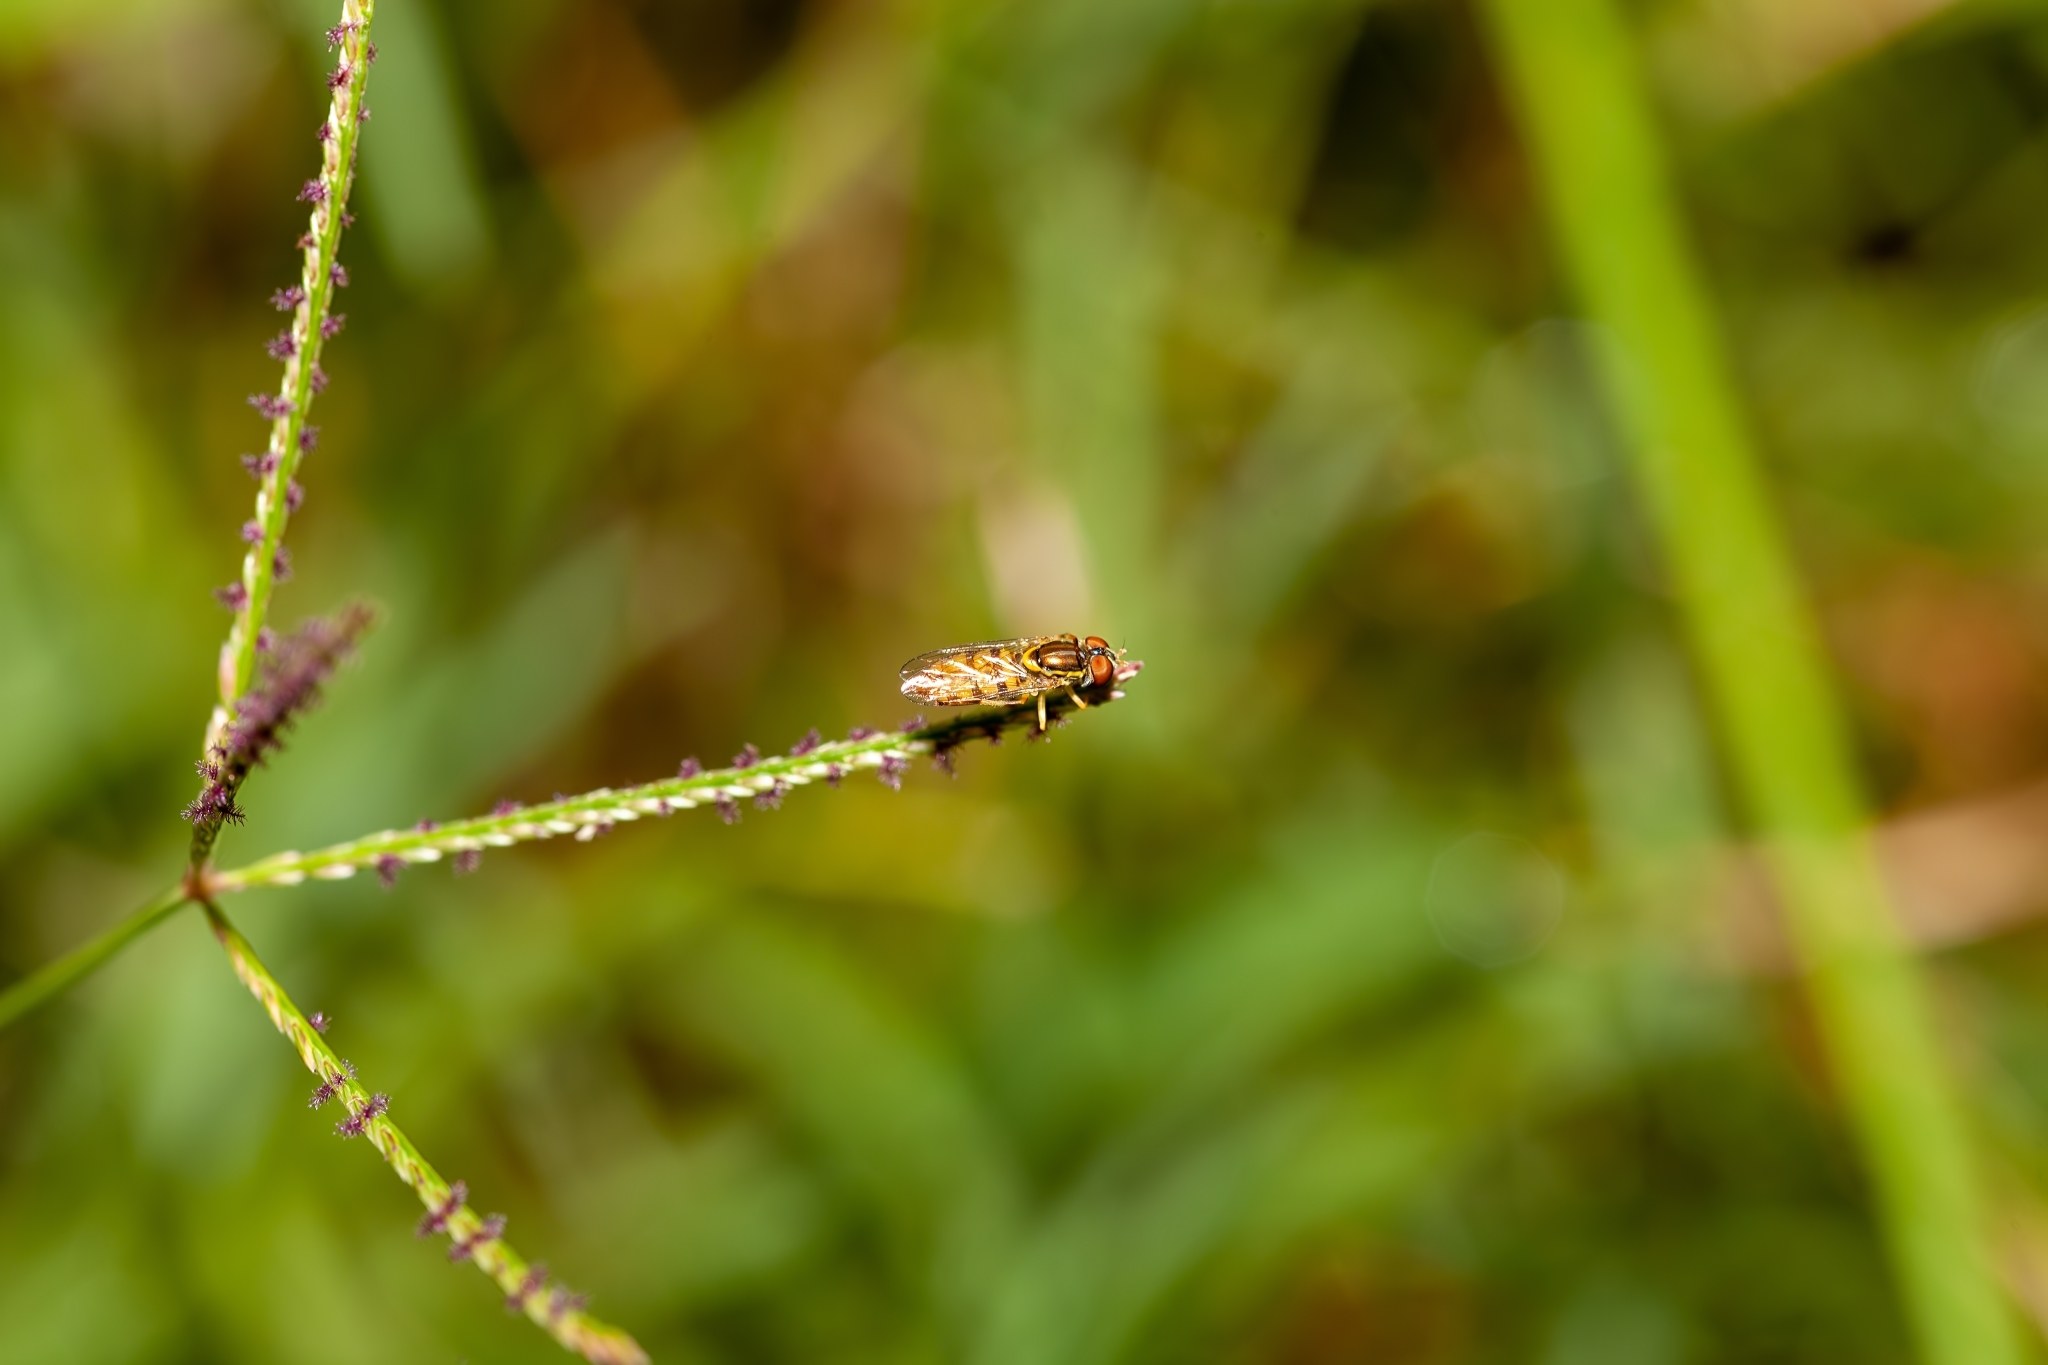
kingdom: Animalia
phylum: Arthropoda
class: Insecta
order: Diptera
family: Syrphidae
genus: Toxomerus
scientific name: Toxomerus floralis
